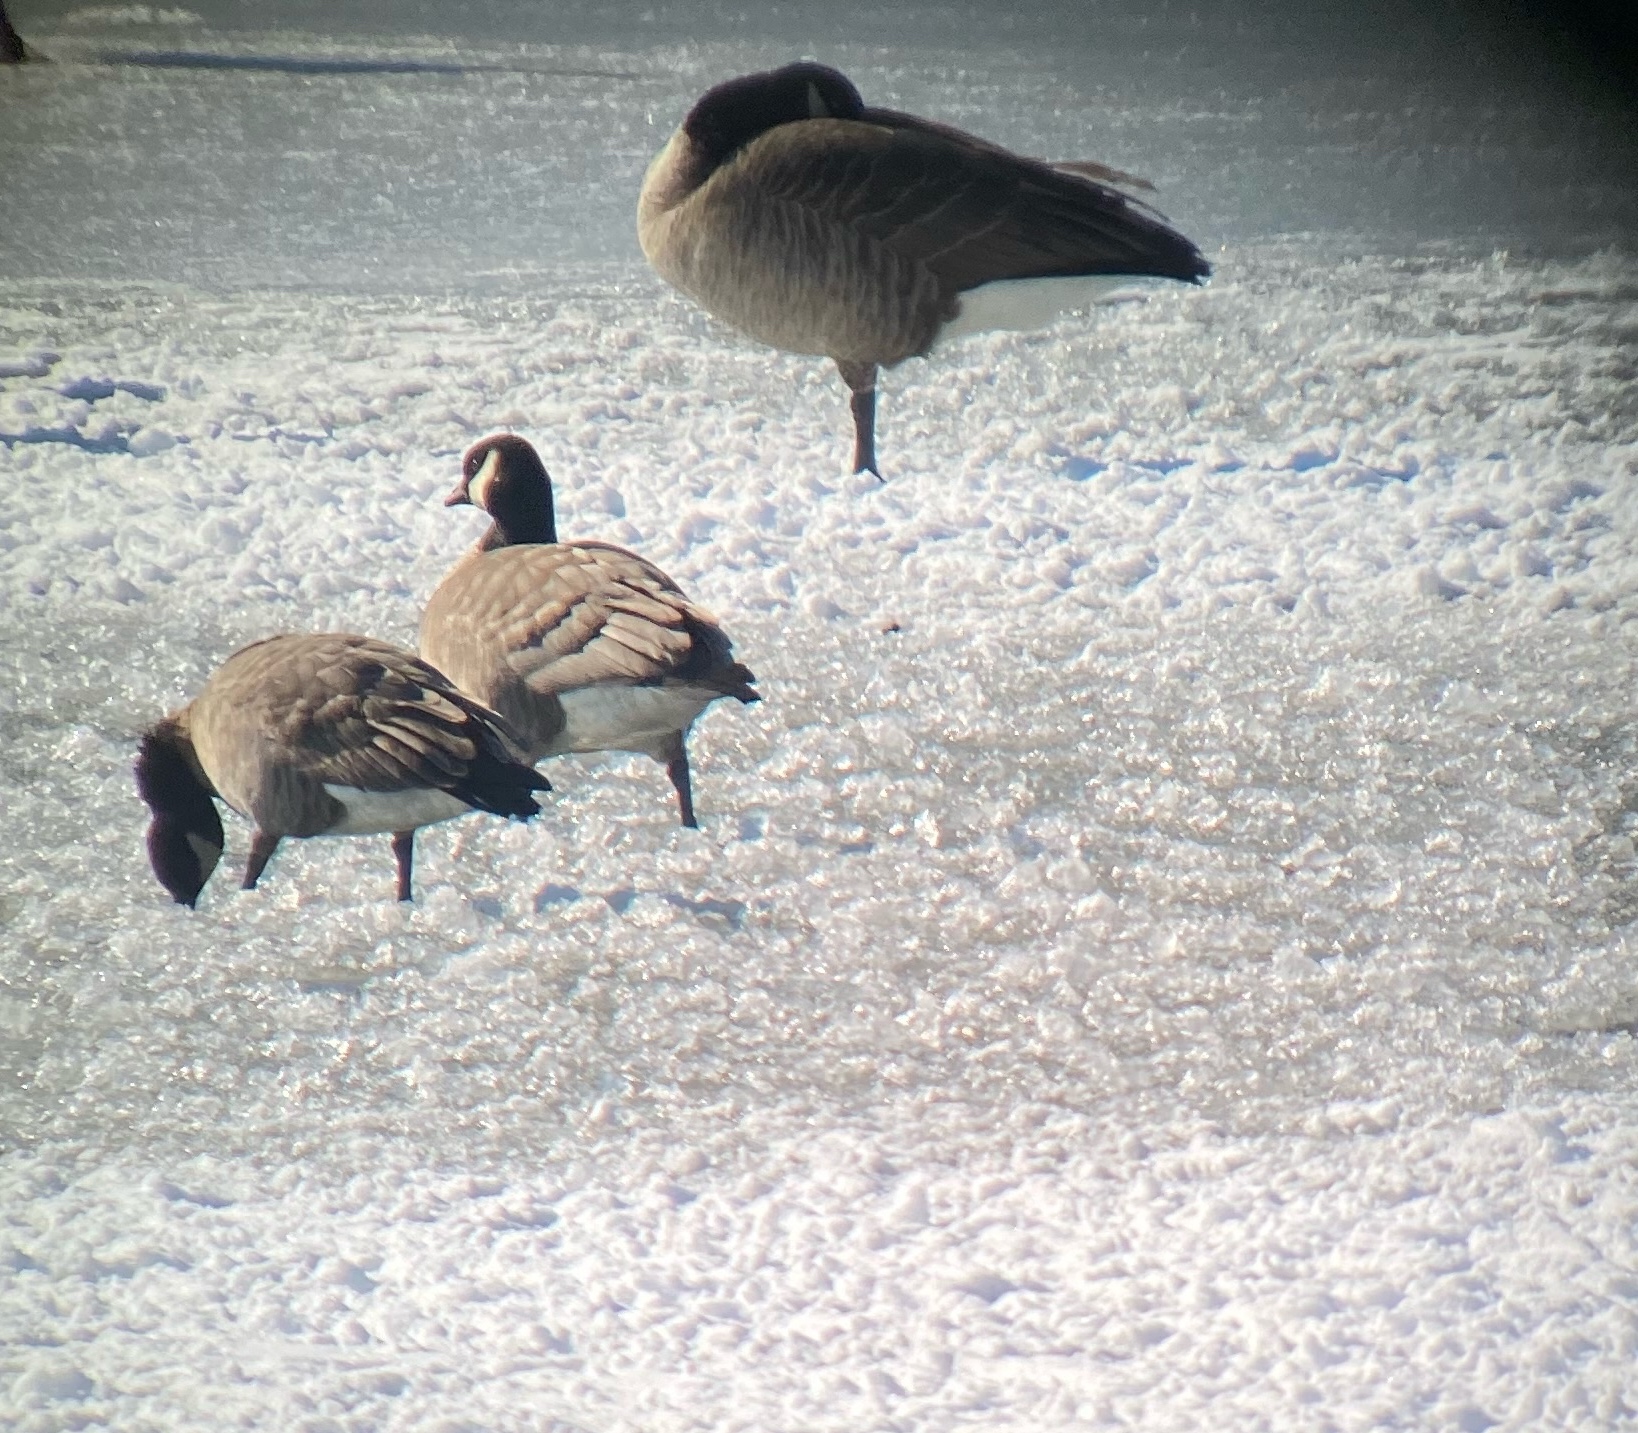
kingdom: Animalia
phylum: Chordata
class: Aves
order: Anseriformes
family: Anatidae
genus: Branta
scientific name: Branta hutchinsii
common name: Cackling goose
